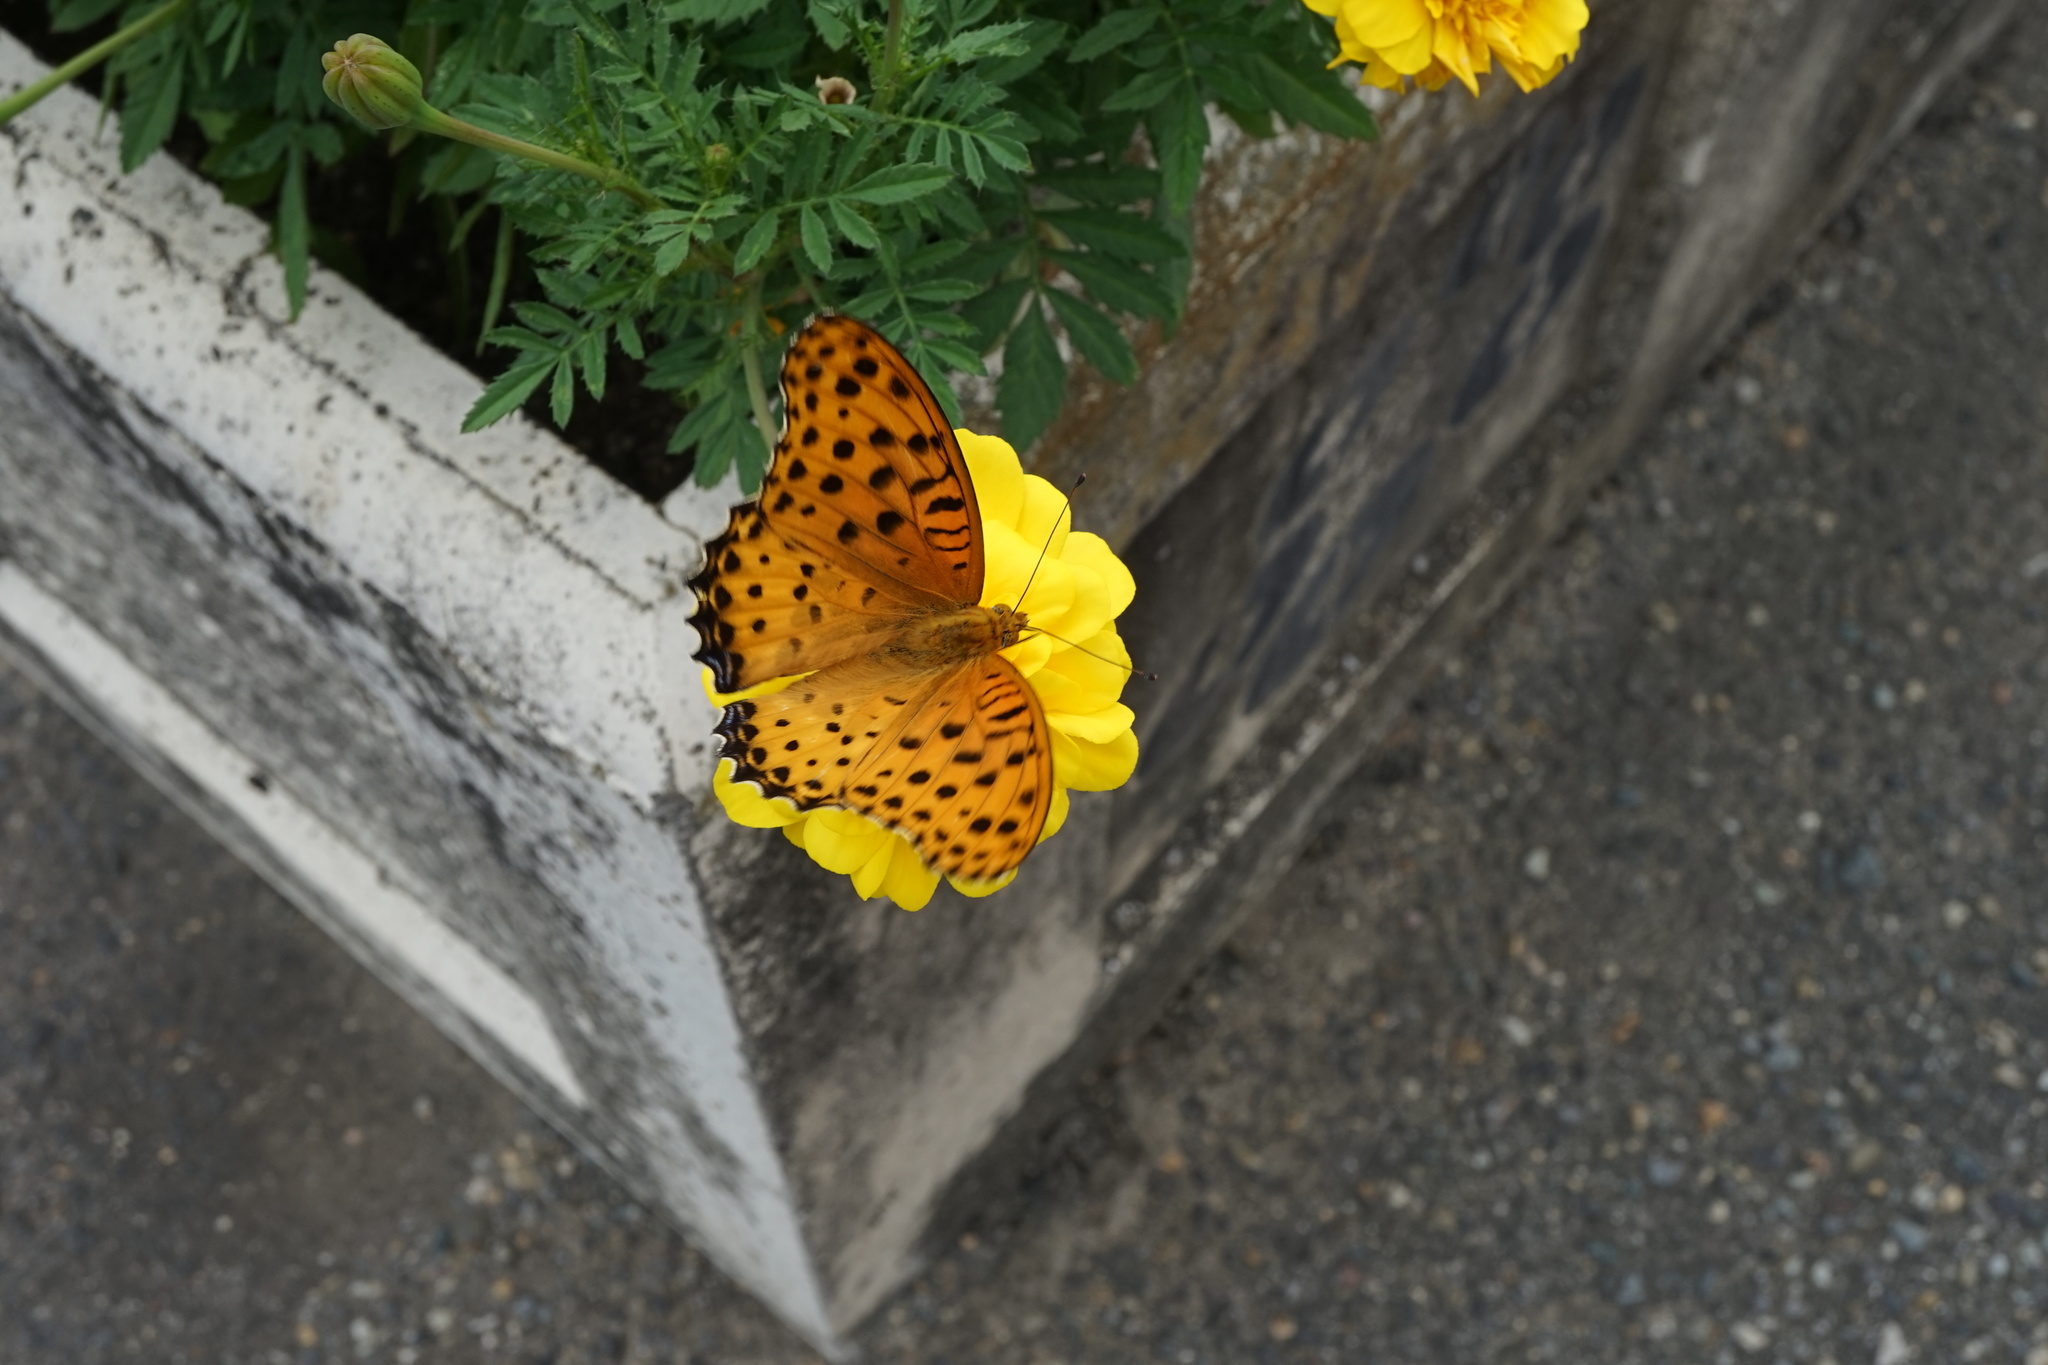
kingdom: Animalia
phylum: Arthropoda
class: Insecta
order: Lepidoptera
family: Nymphalidae
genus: Argynnis
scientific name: Argynnis hyperbius
